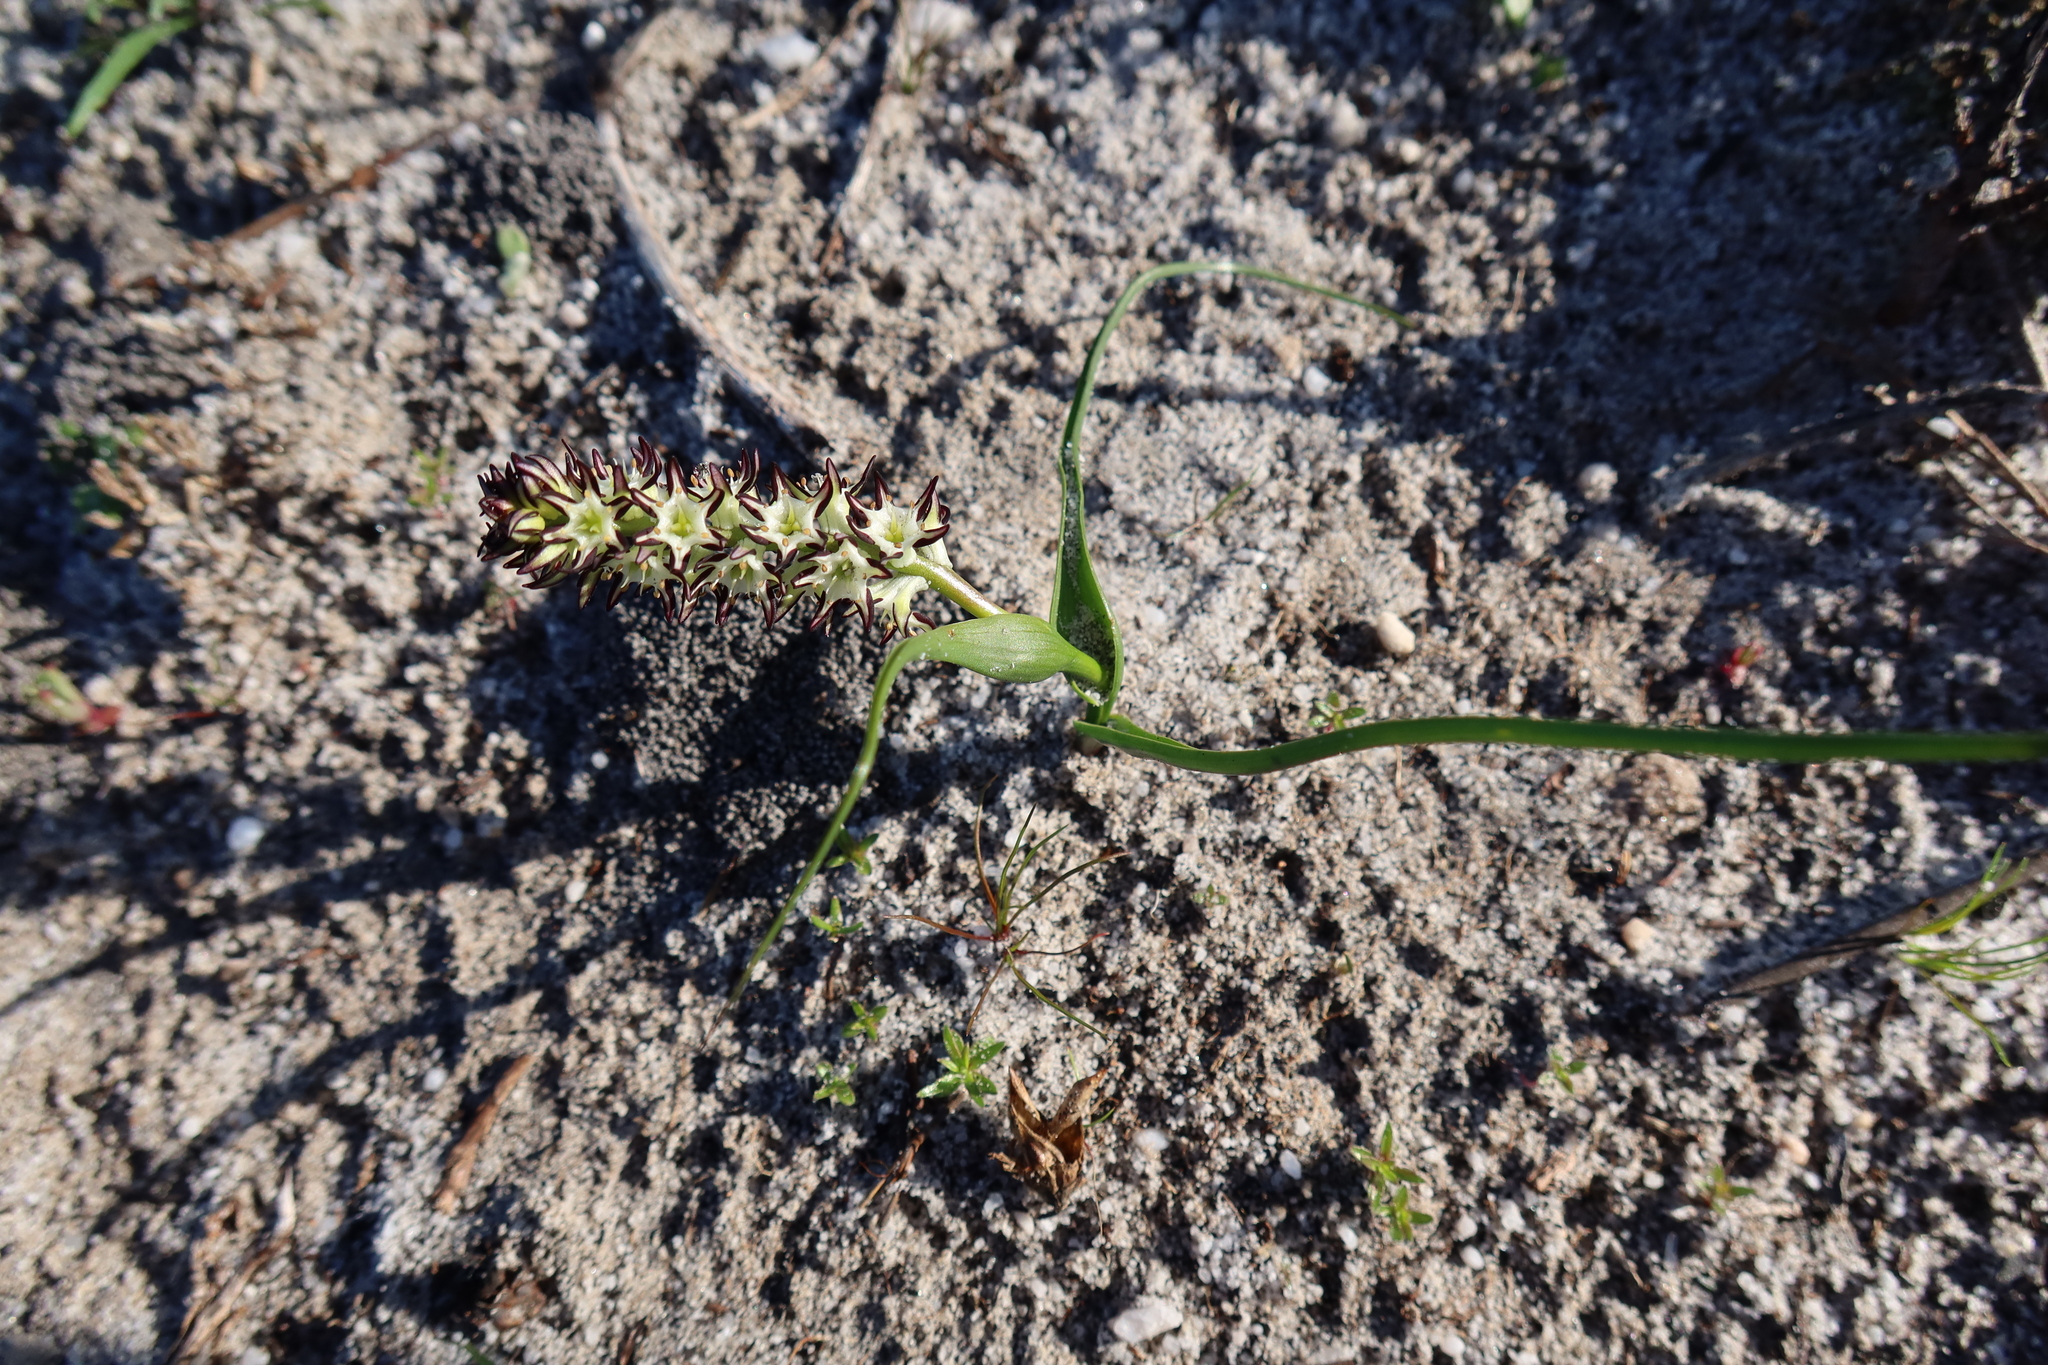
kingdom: Plantae
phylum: Tracheophyta
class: Liliopsida
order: Liliales
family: Colchicaceae
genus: Wurmbea
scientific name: Wurmbea hiemalis
